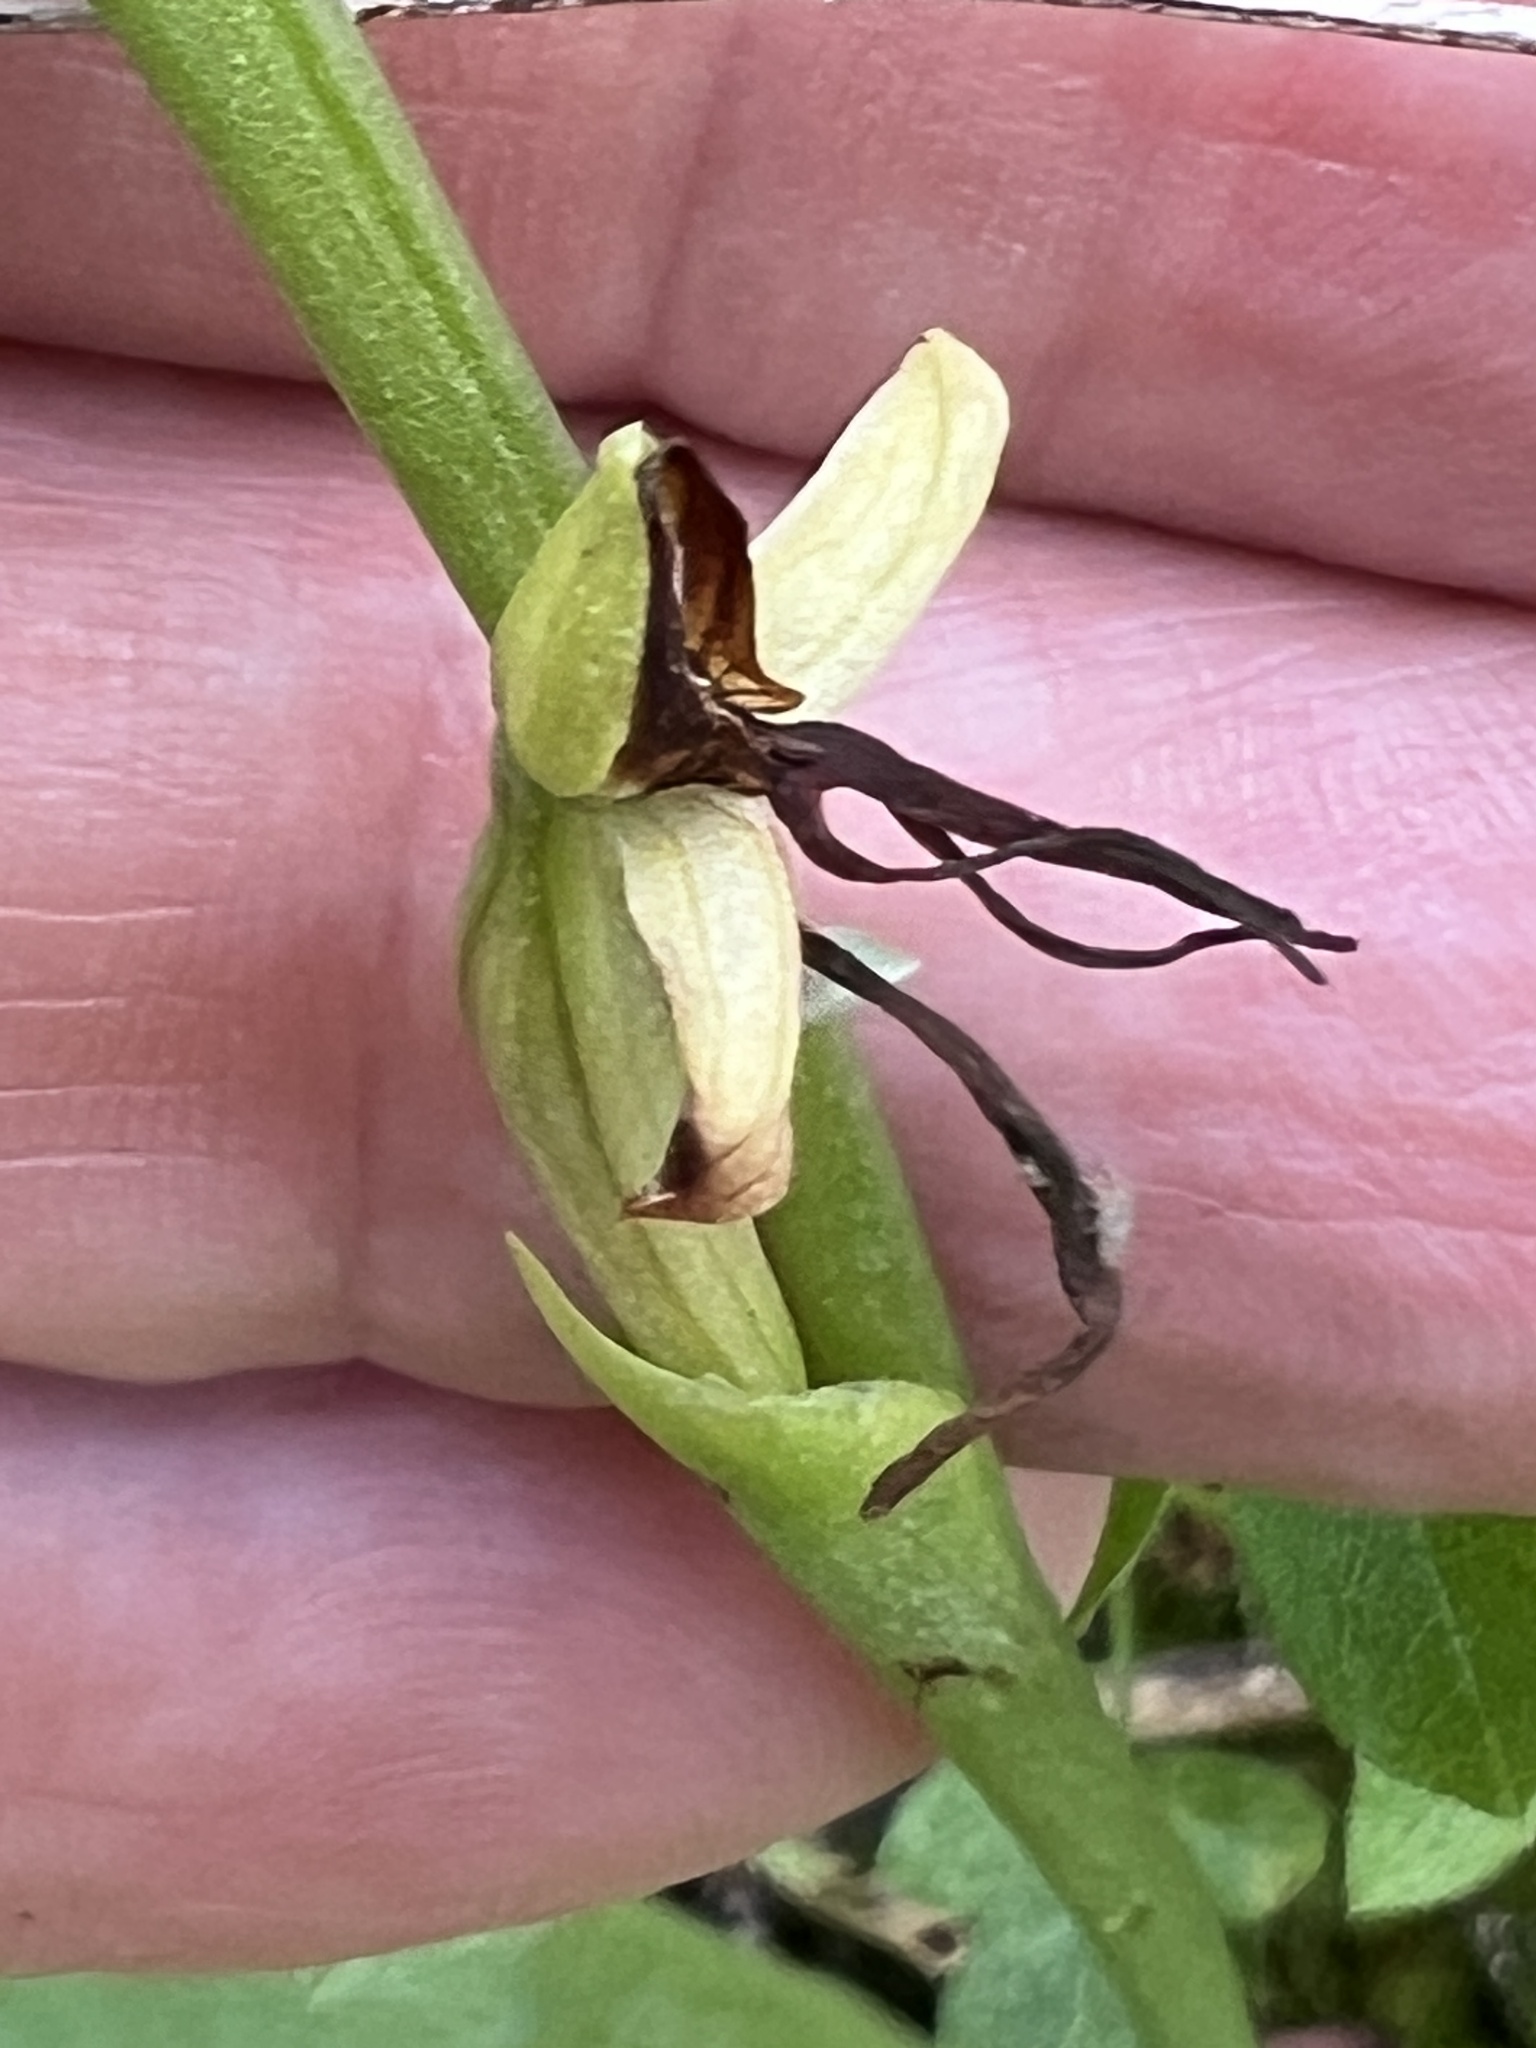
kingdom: Plantae
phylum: Tracheophyta
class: Liliopsida
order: Asparagales
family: Orchidaceae
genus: Habenaria
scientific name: Habenaria tridactylites
